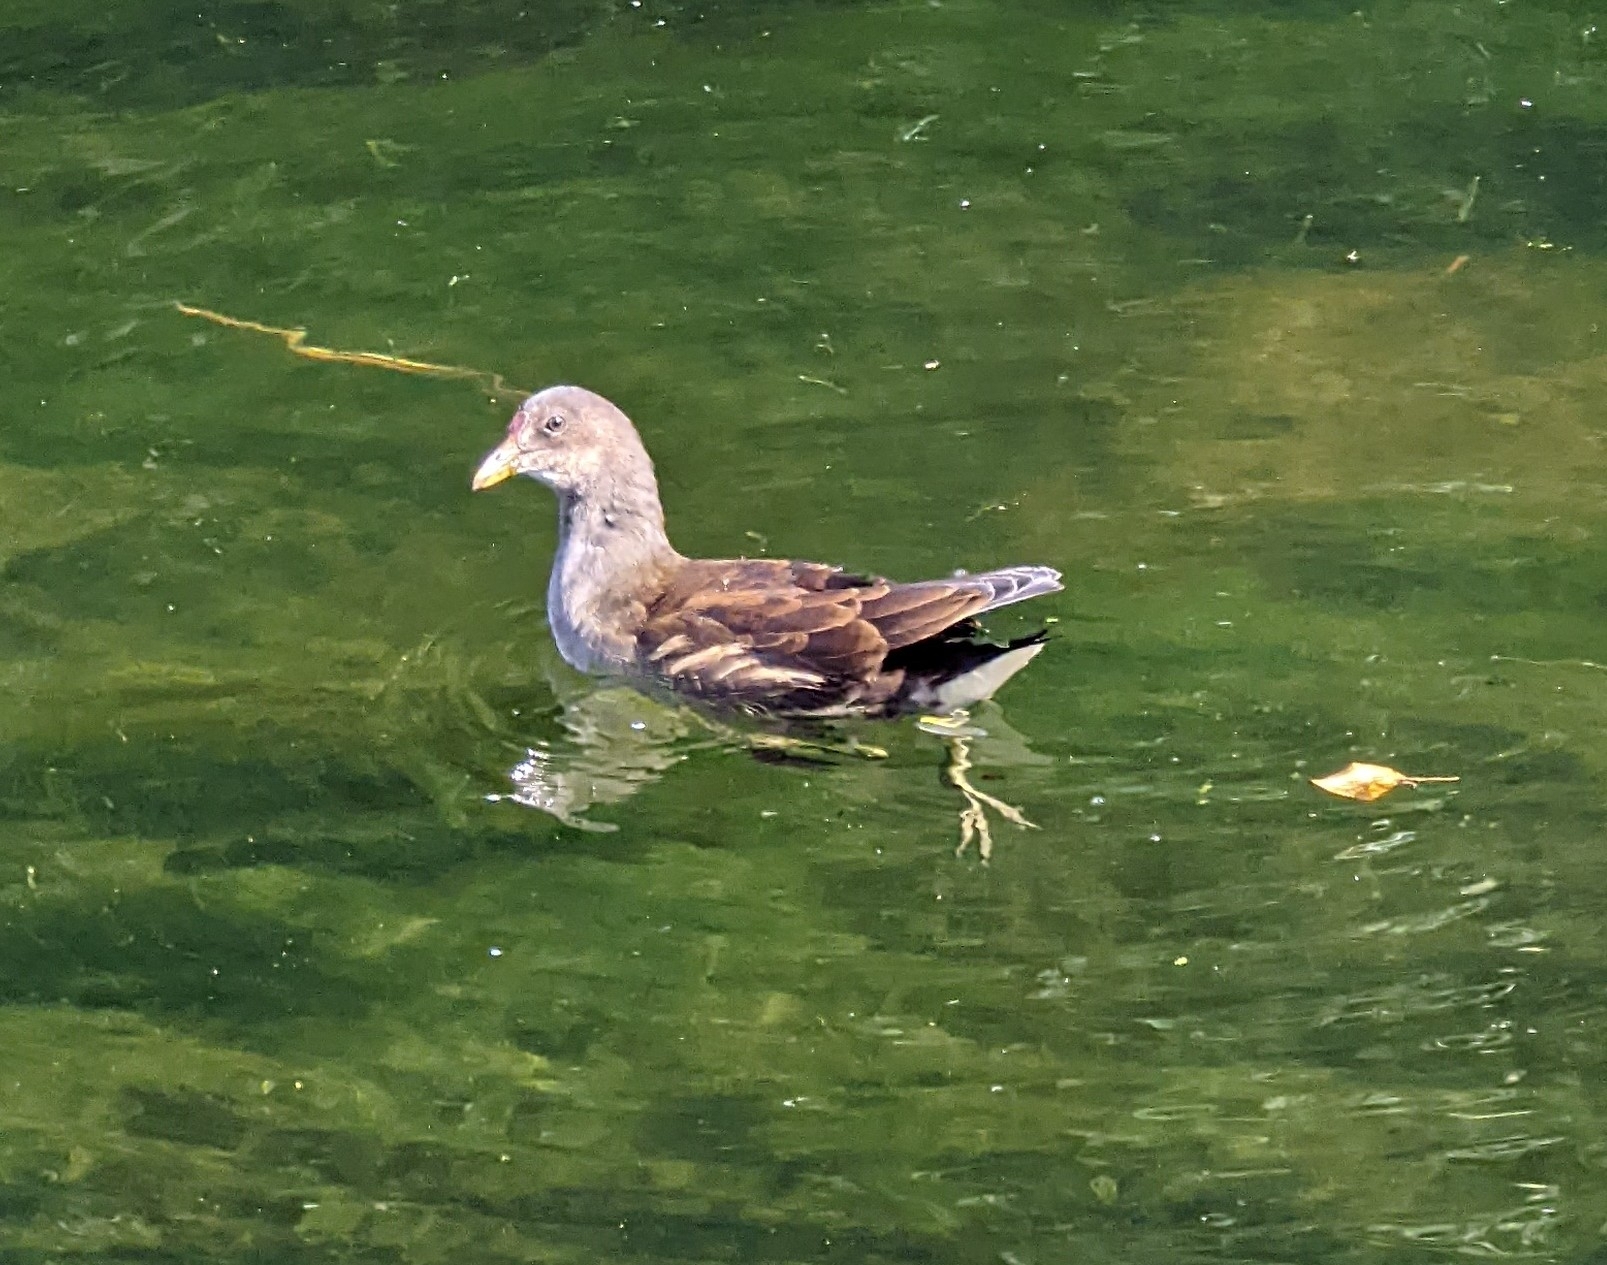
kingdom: Animalia
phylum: Chordata
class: Aves
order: Gruiformes
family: Rallidae
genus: Gallinula
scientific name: Gallinula chloropus
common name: Common moorhen
